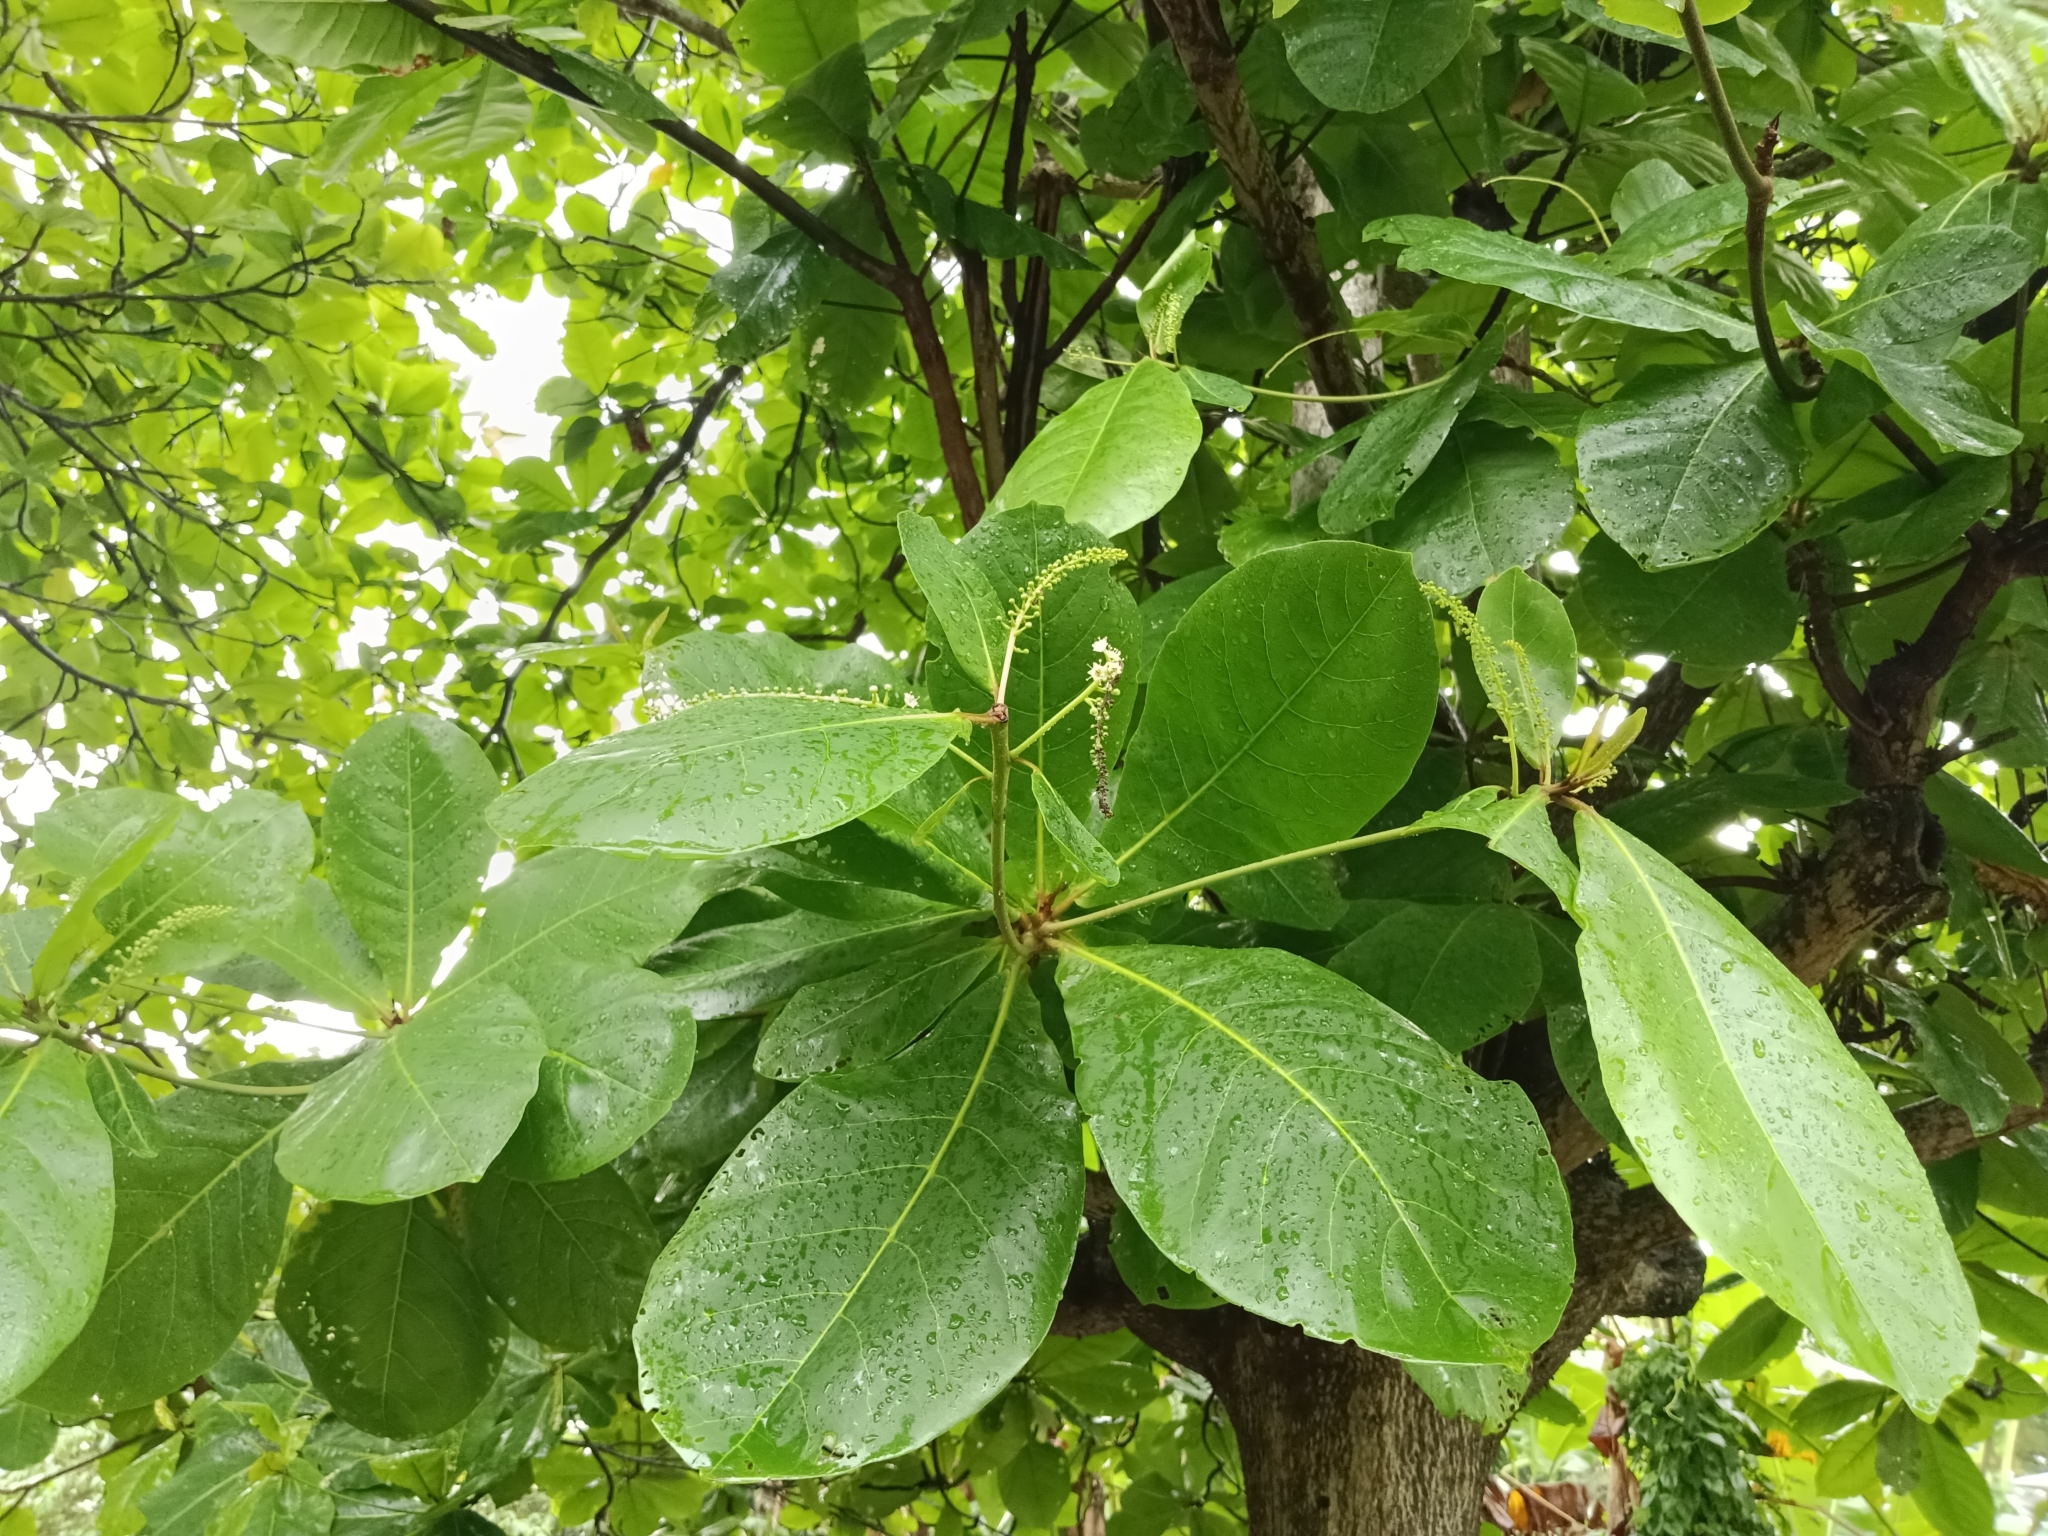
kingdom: Plantae
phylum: Tracheophyta
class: Magnoliopsida
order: Myrtales
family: Combretaceae
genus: Terminalia
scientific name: Terminalia catappa
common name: Tropical almond
